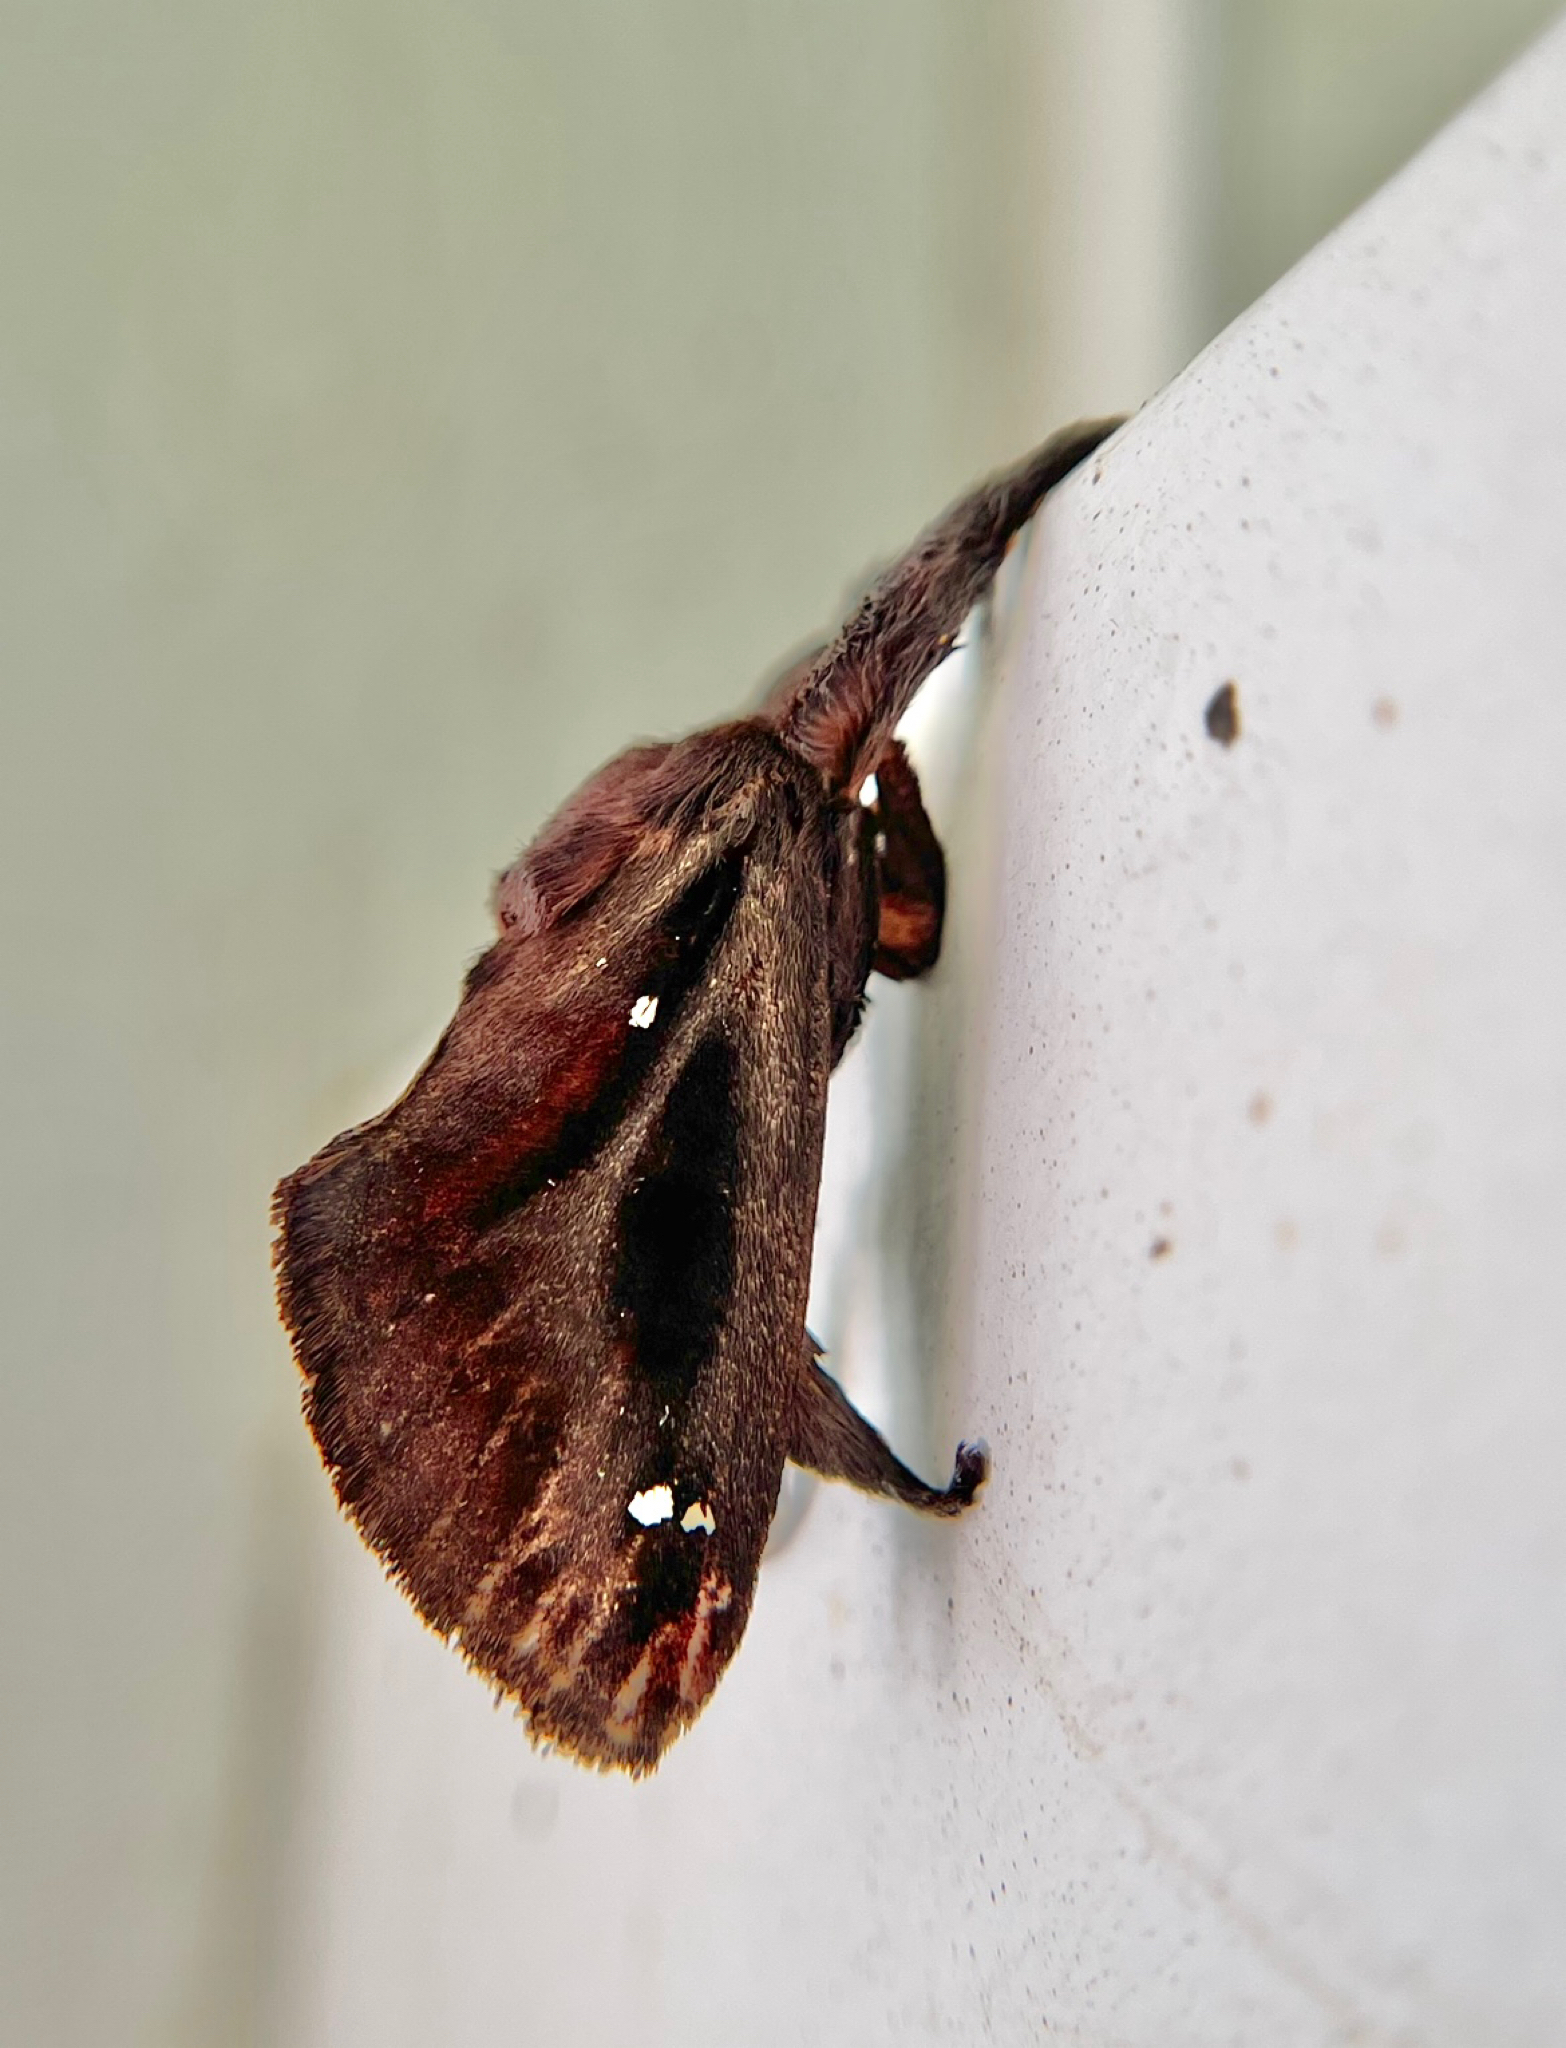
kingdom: Animalia
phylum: Arthropoda
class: Insecta
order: Lepidoptera
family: Limacodidae
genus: Acharia
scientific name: Acharia stimulea
